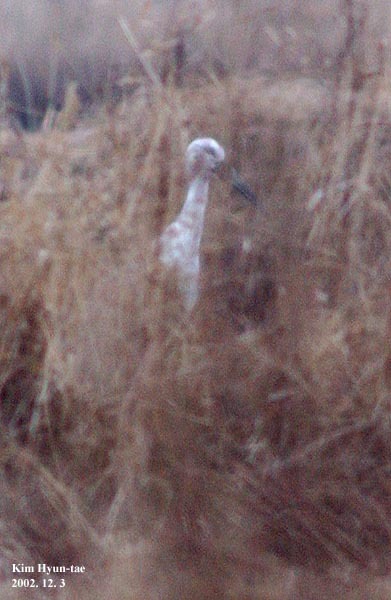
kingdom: Animalia
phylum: Chordata
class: Aves
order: Ciconiiformes
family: Ciconiidae
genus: Ciconia
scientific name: Ciconia boyciana
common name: Oriental stork
